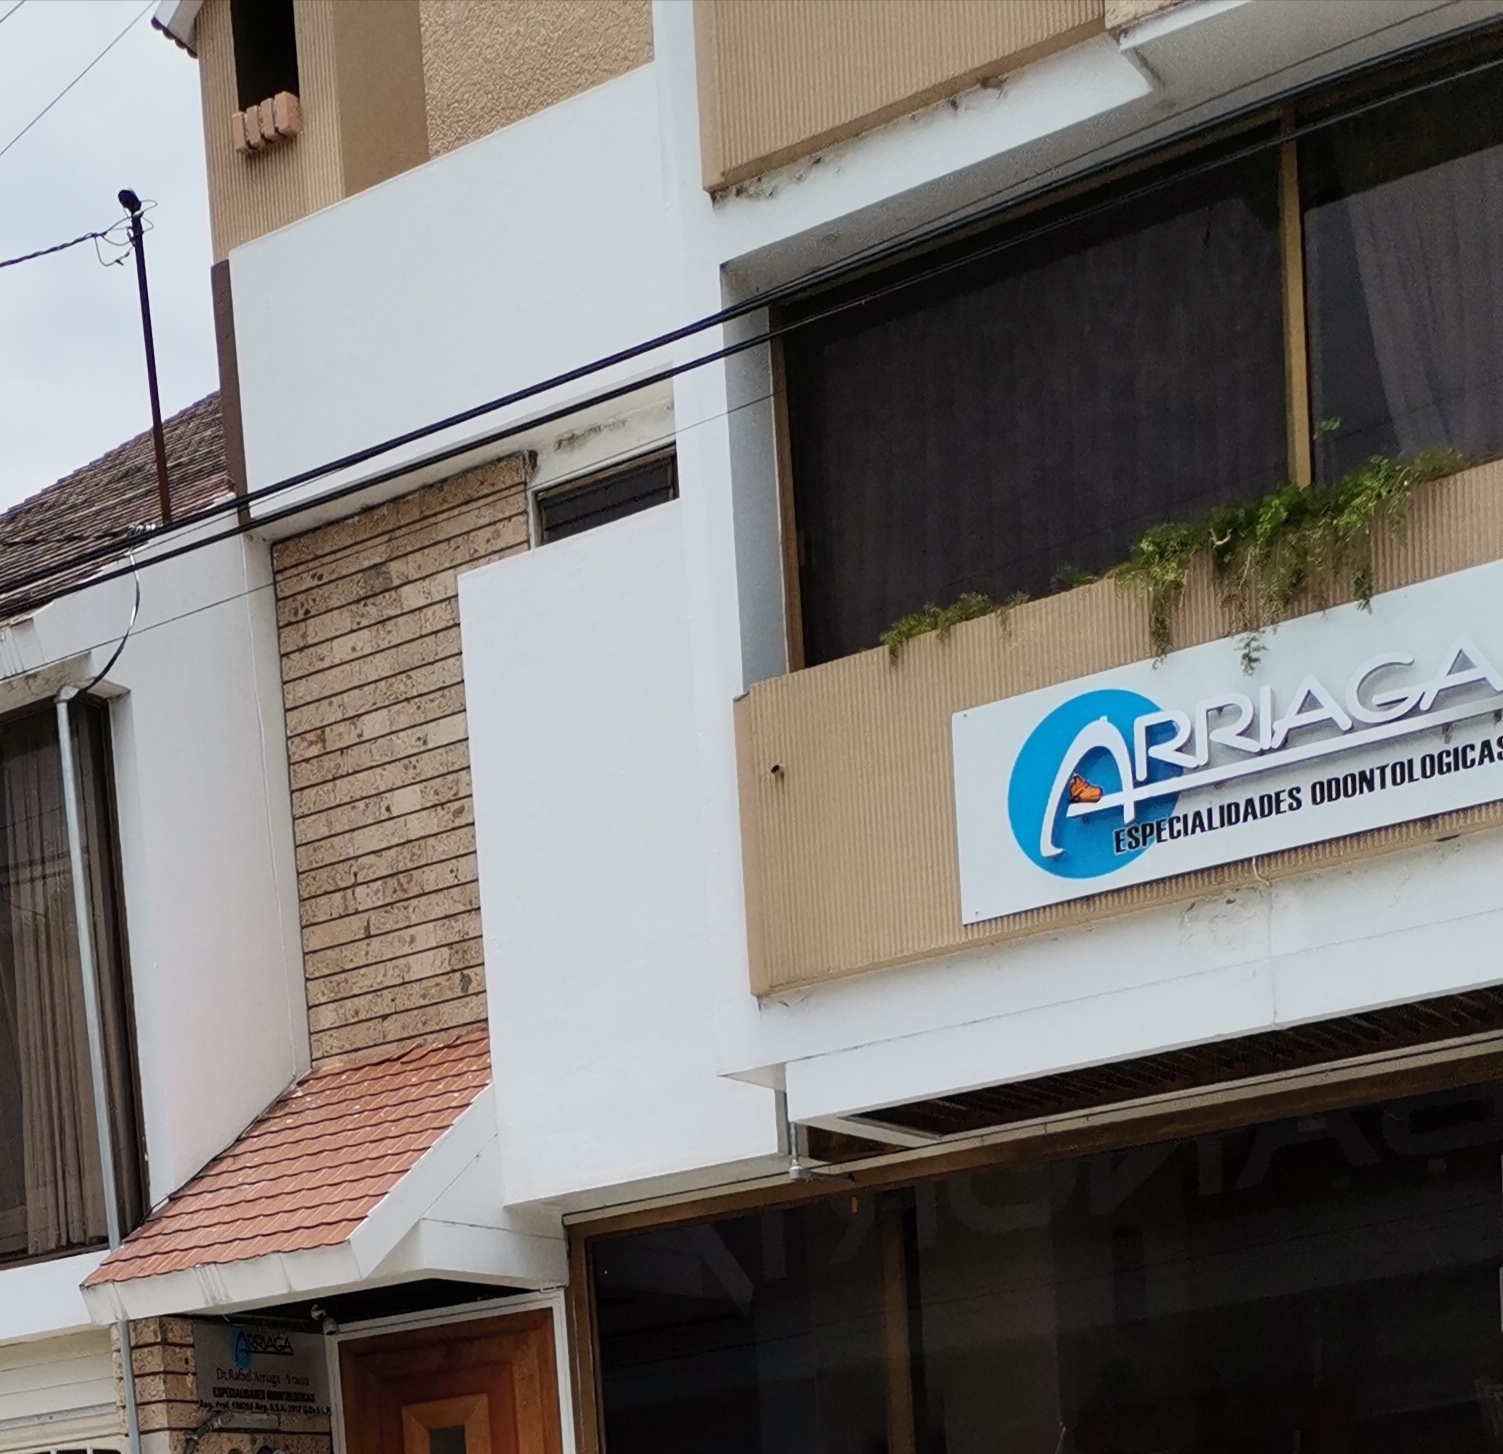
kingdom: Animalia
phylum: Arthropoda
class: Insecta
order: Lepidoptera
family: Nymphalidae
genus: Danaus
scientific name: Danaus plexippus
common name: Monarch
